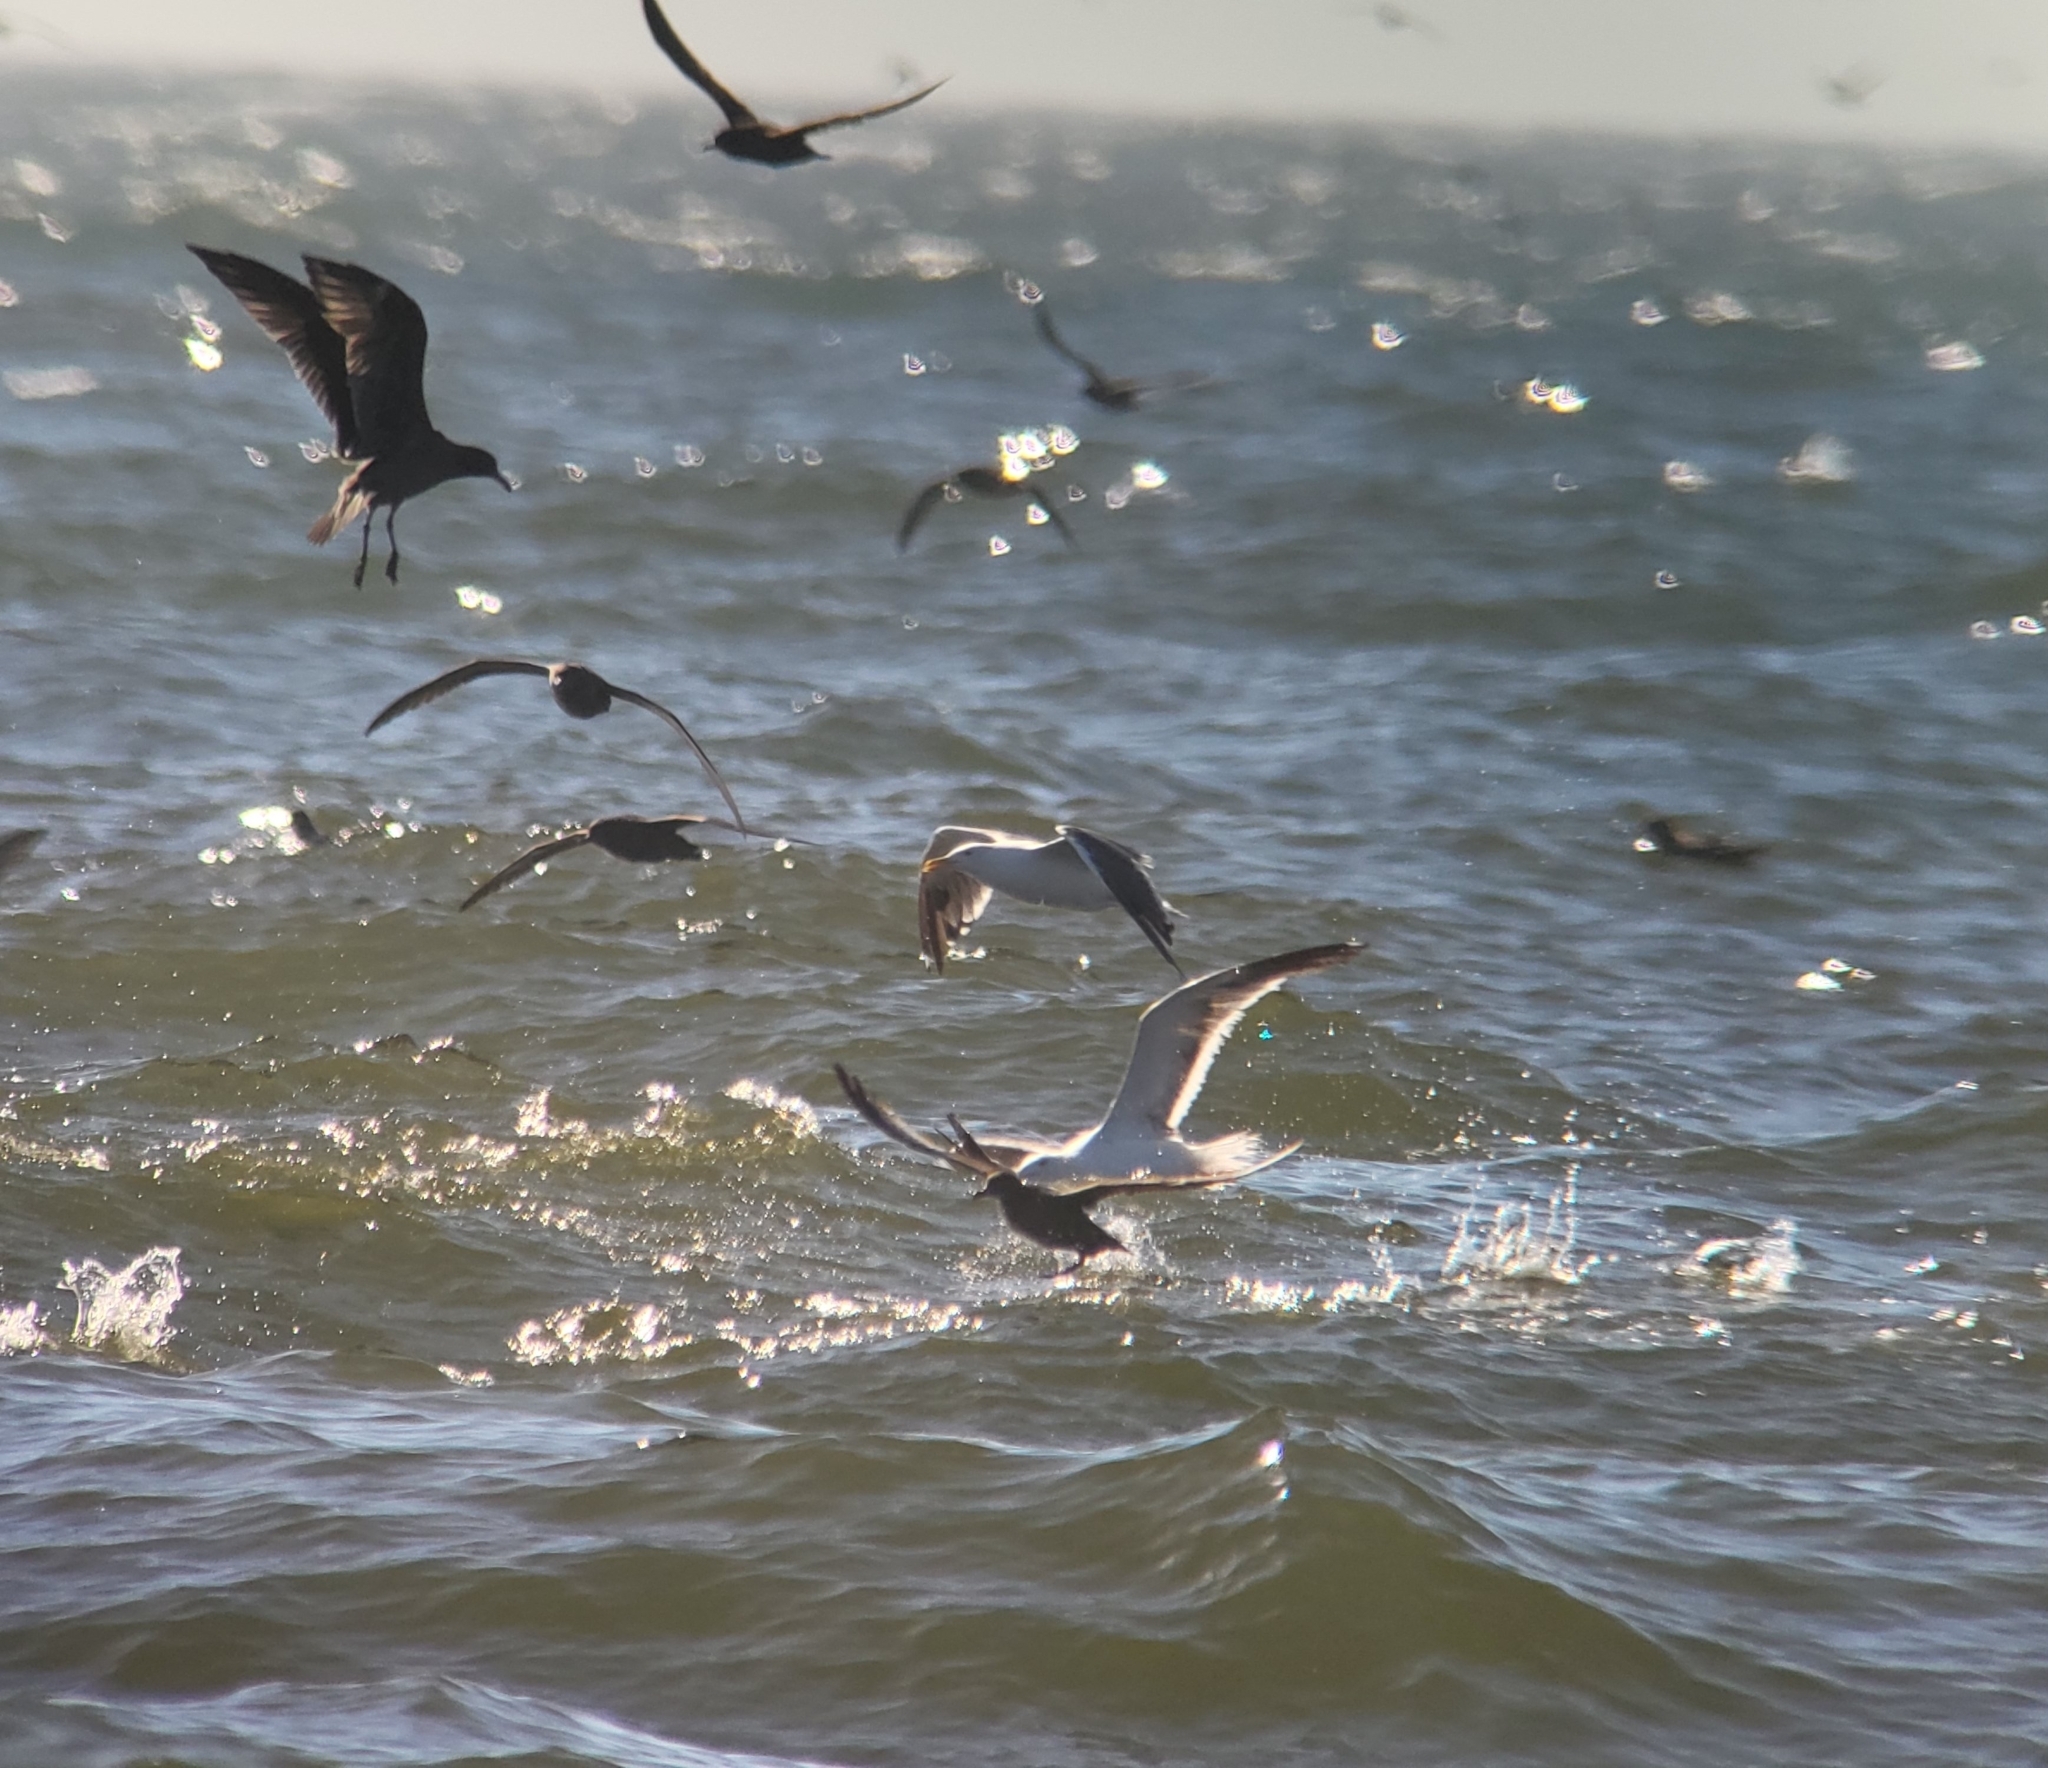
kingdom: Animalia
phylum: Chordata
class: Aves
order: Charadriiformes
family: Laridae
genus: Larus
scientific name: Larus occidentalis
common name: Western gull
